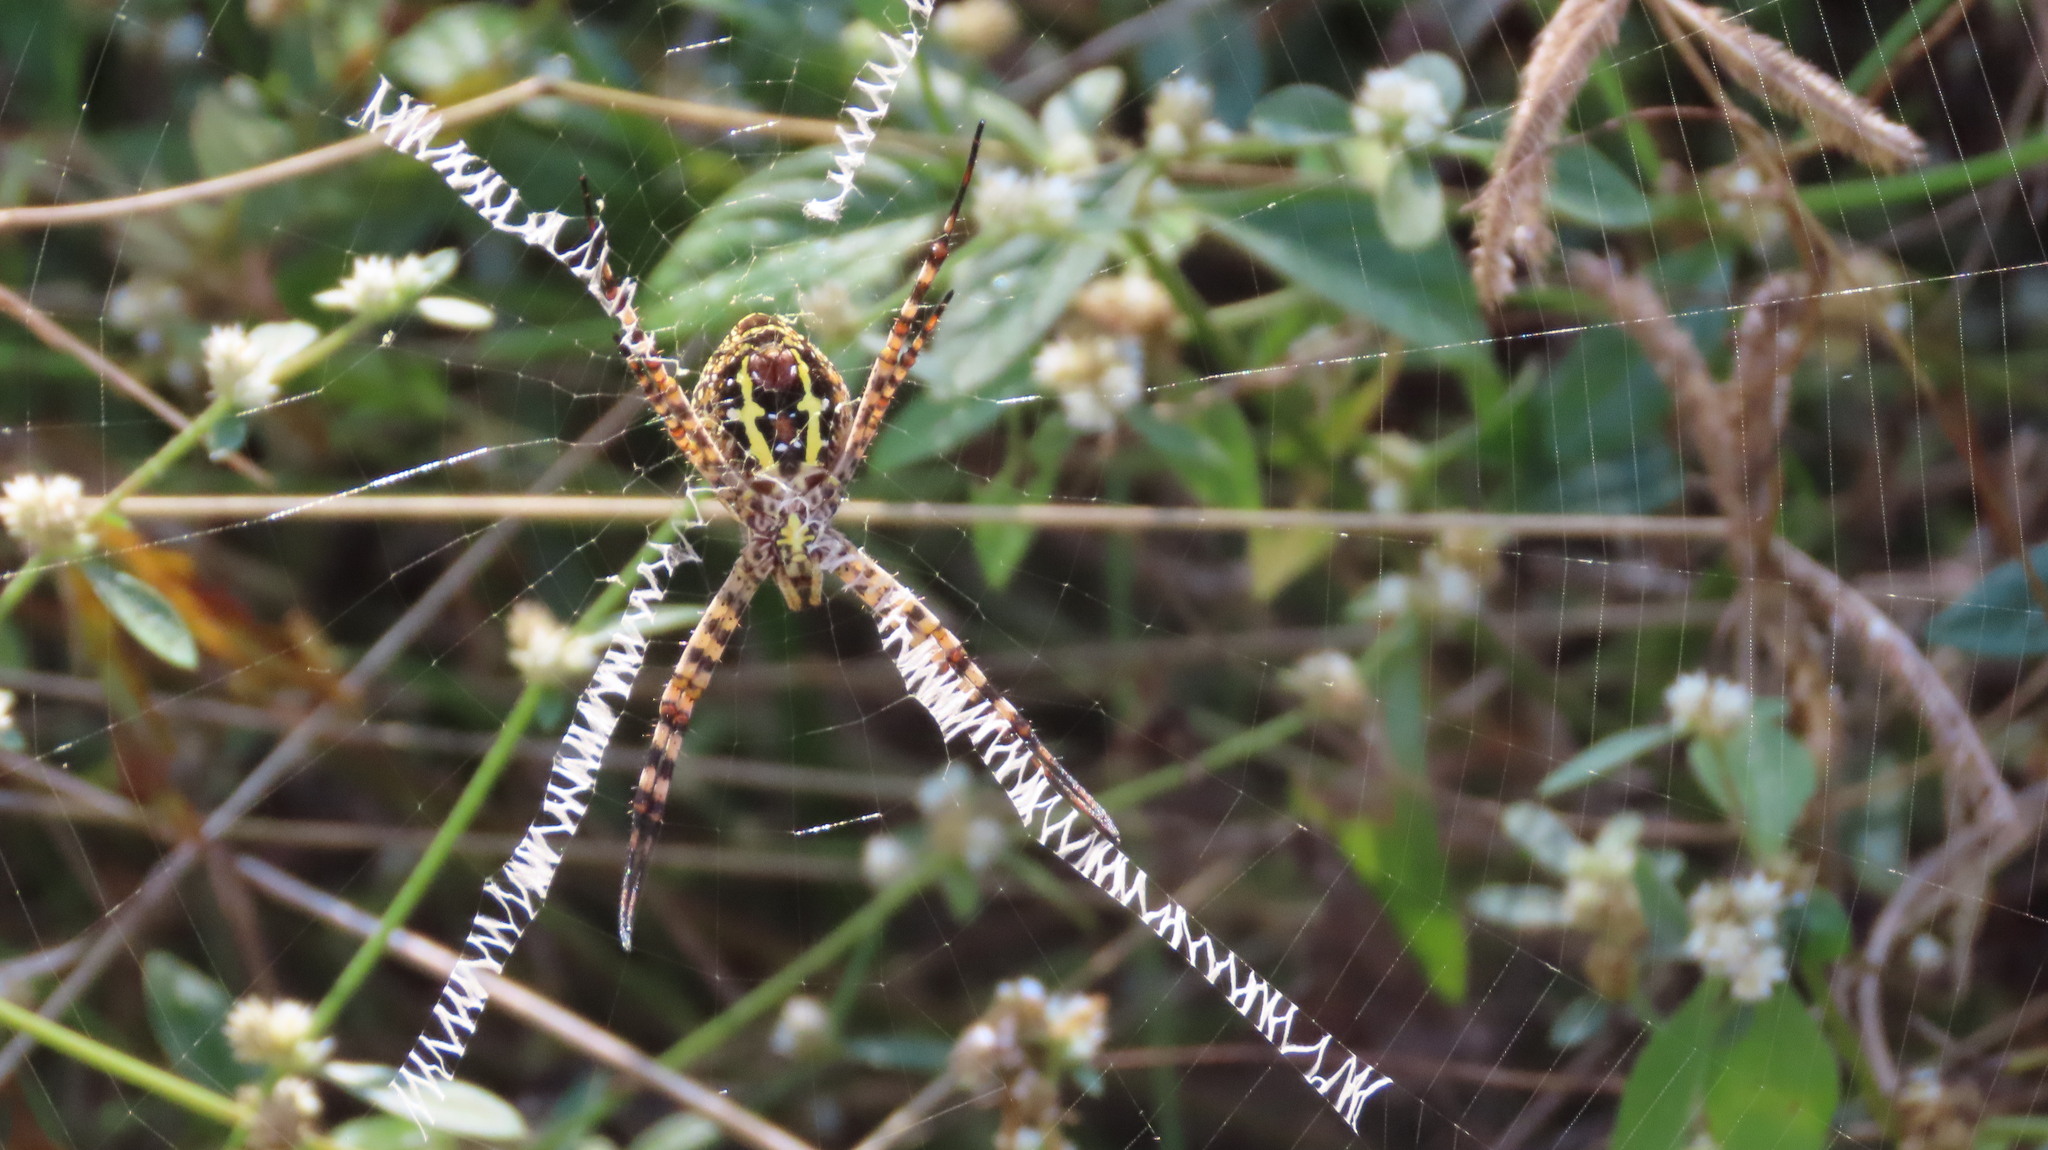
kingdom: Animalia
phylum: Arthropoda
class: Arachnida
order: Araneae
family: Araneidae
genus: Argiope
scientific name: Argiope aemula
